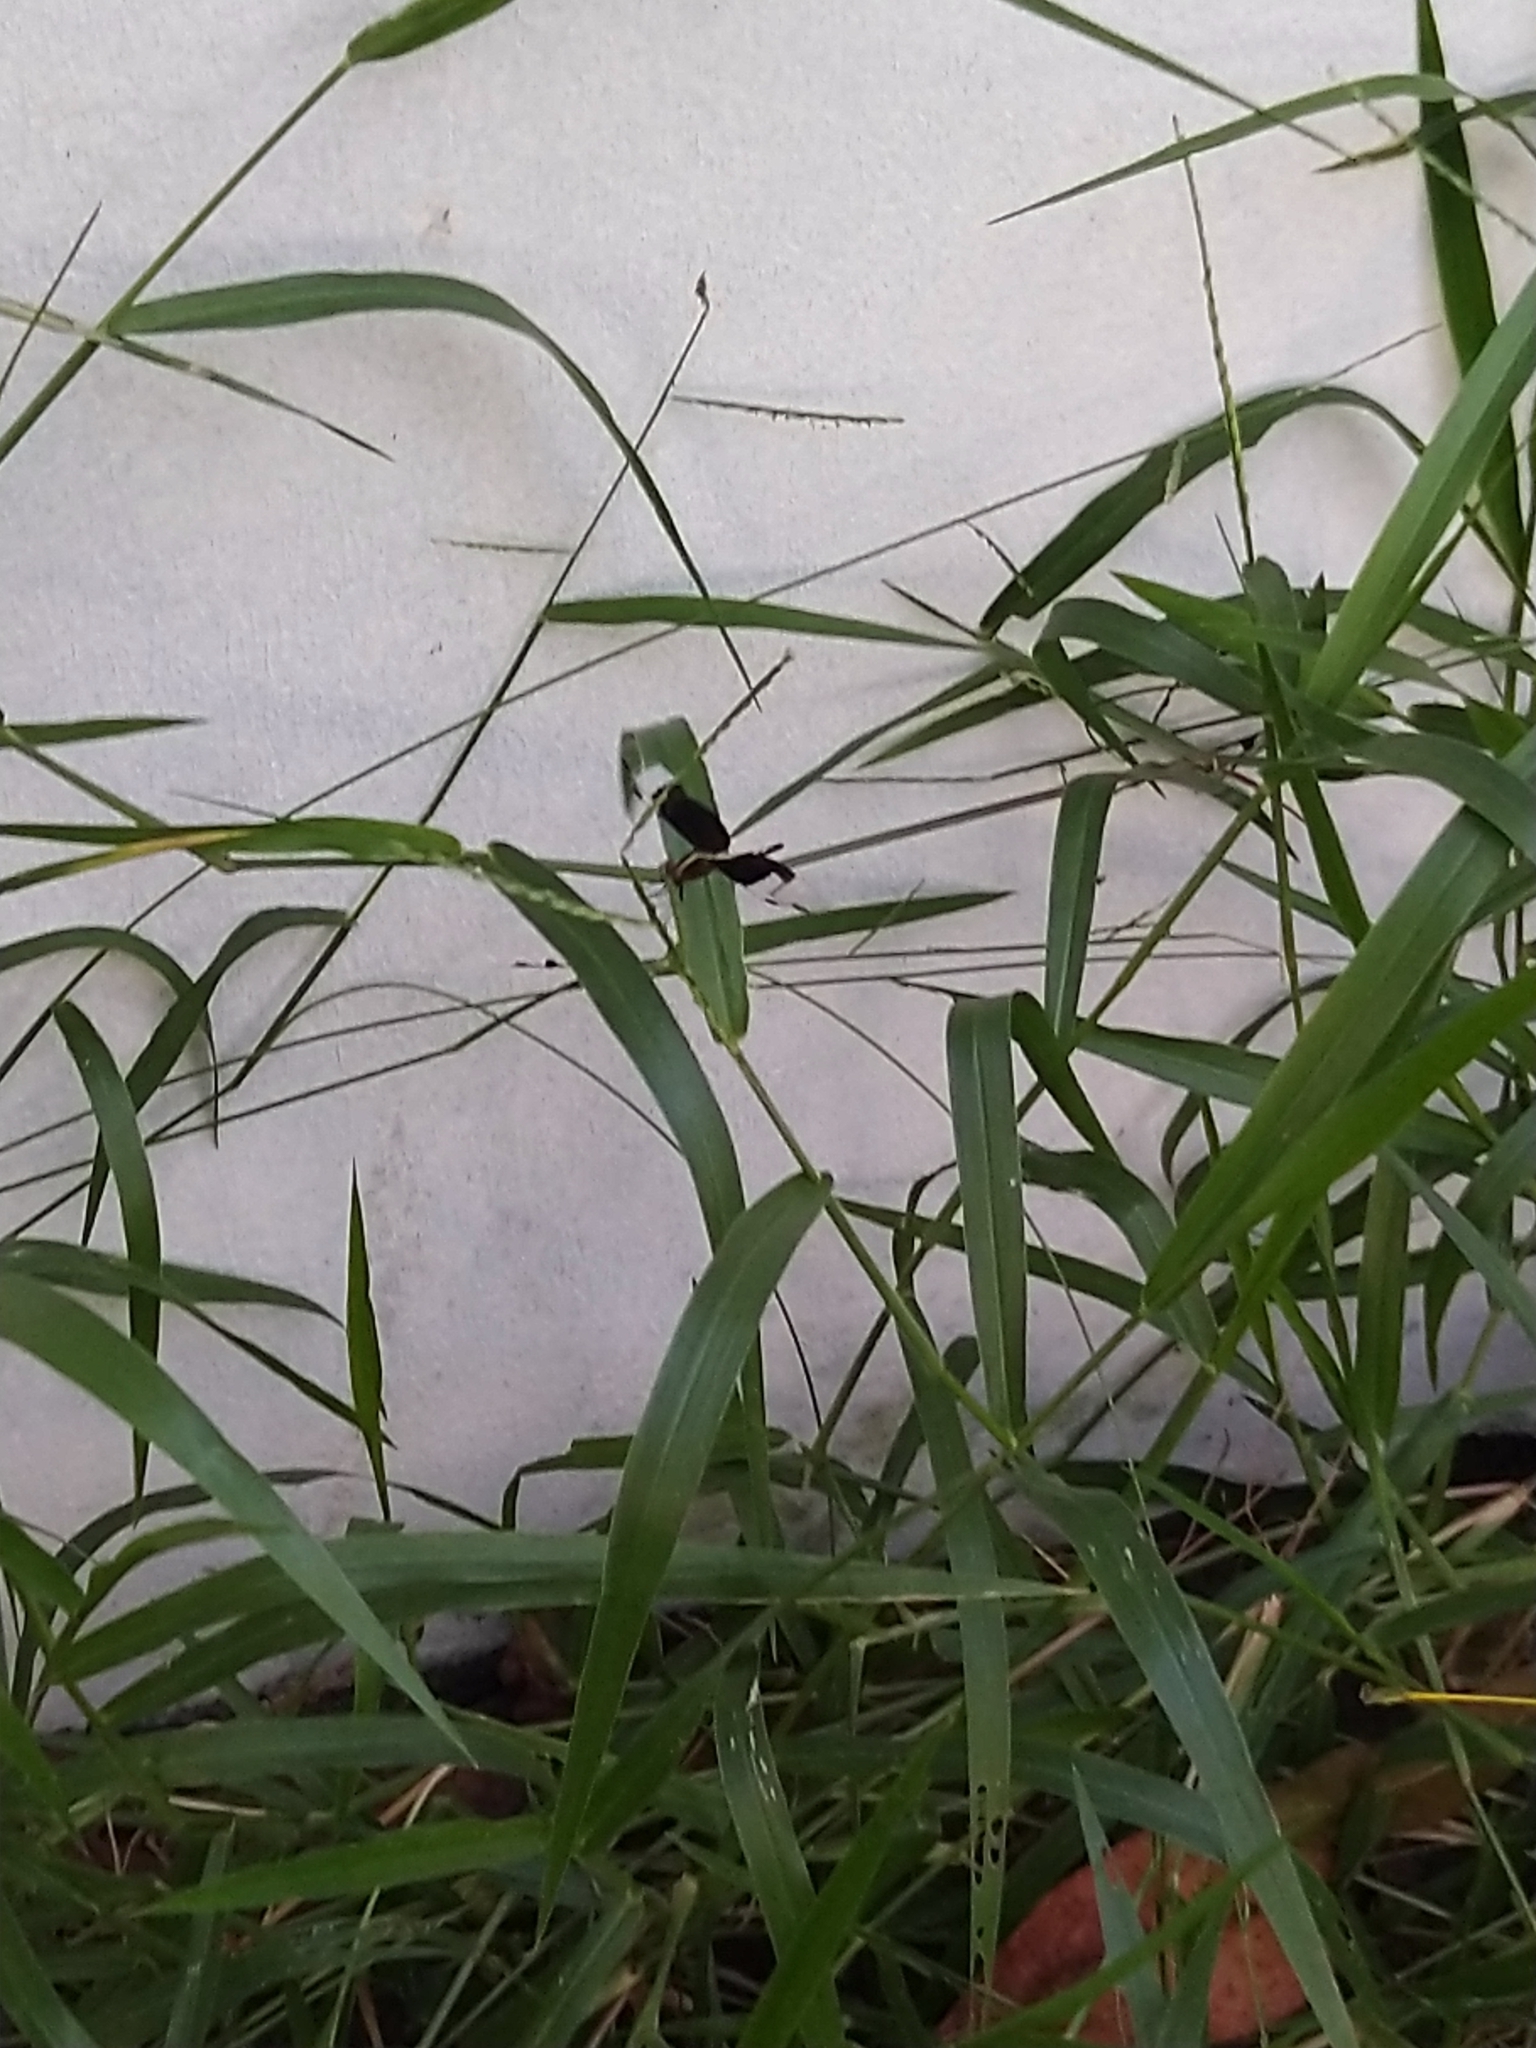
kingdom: Animalia
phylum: Arthropoda
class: Insecta
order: Odonata
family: Libellulidae
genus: Neurothemis
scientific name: Neurothemis tullia
